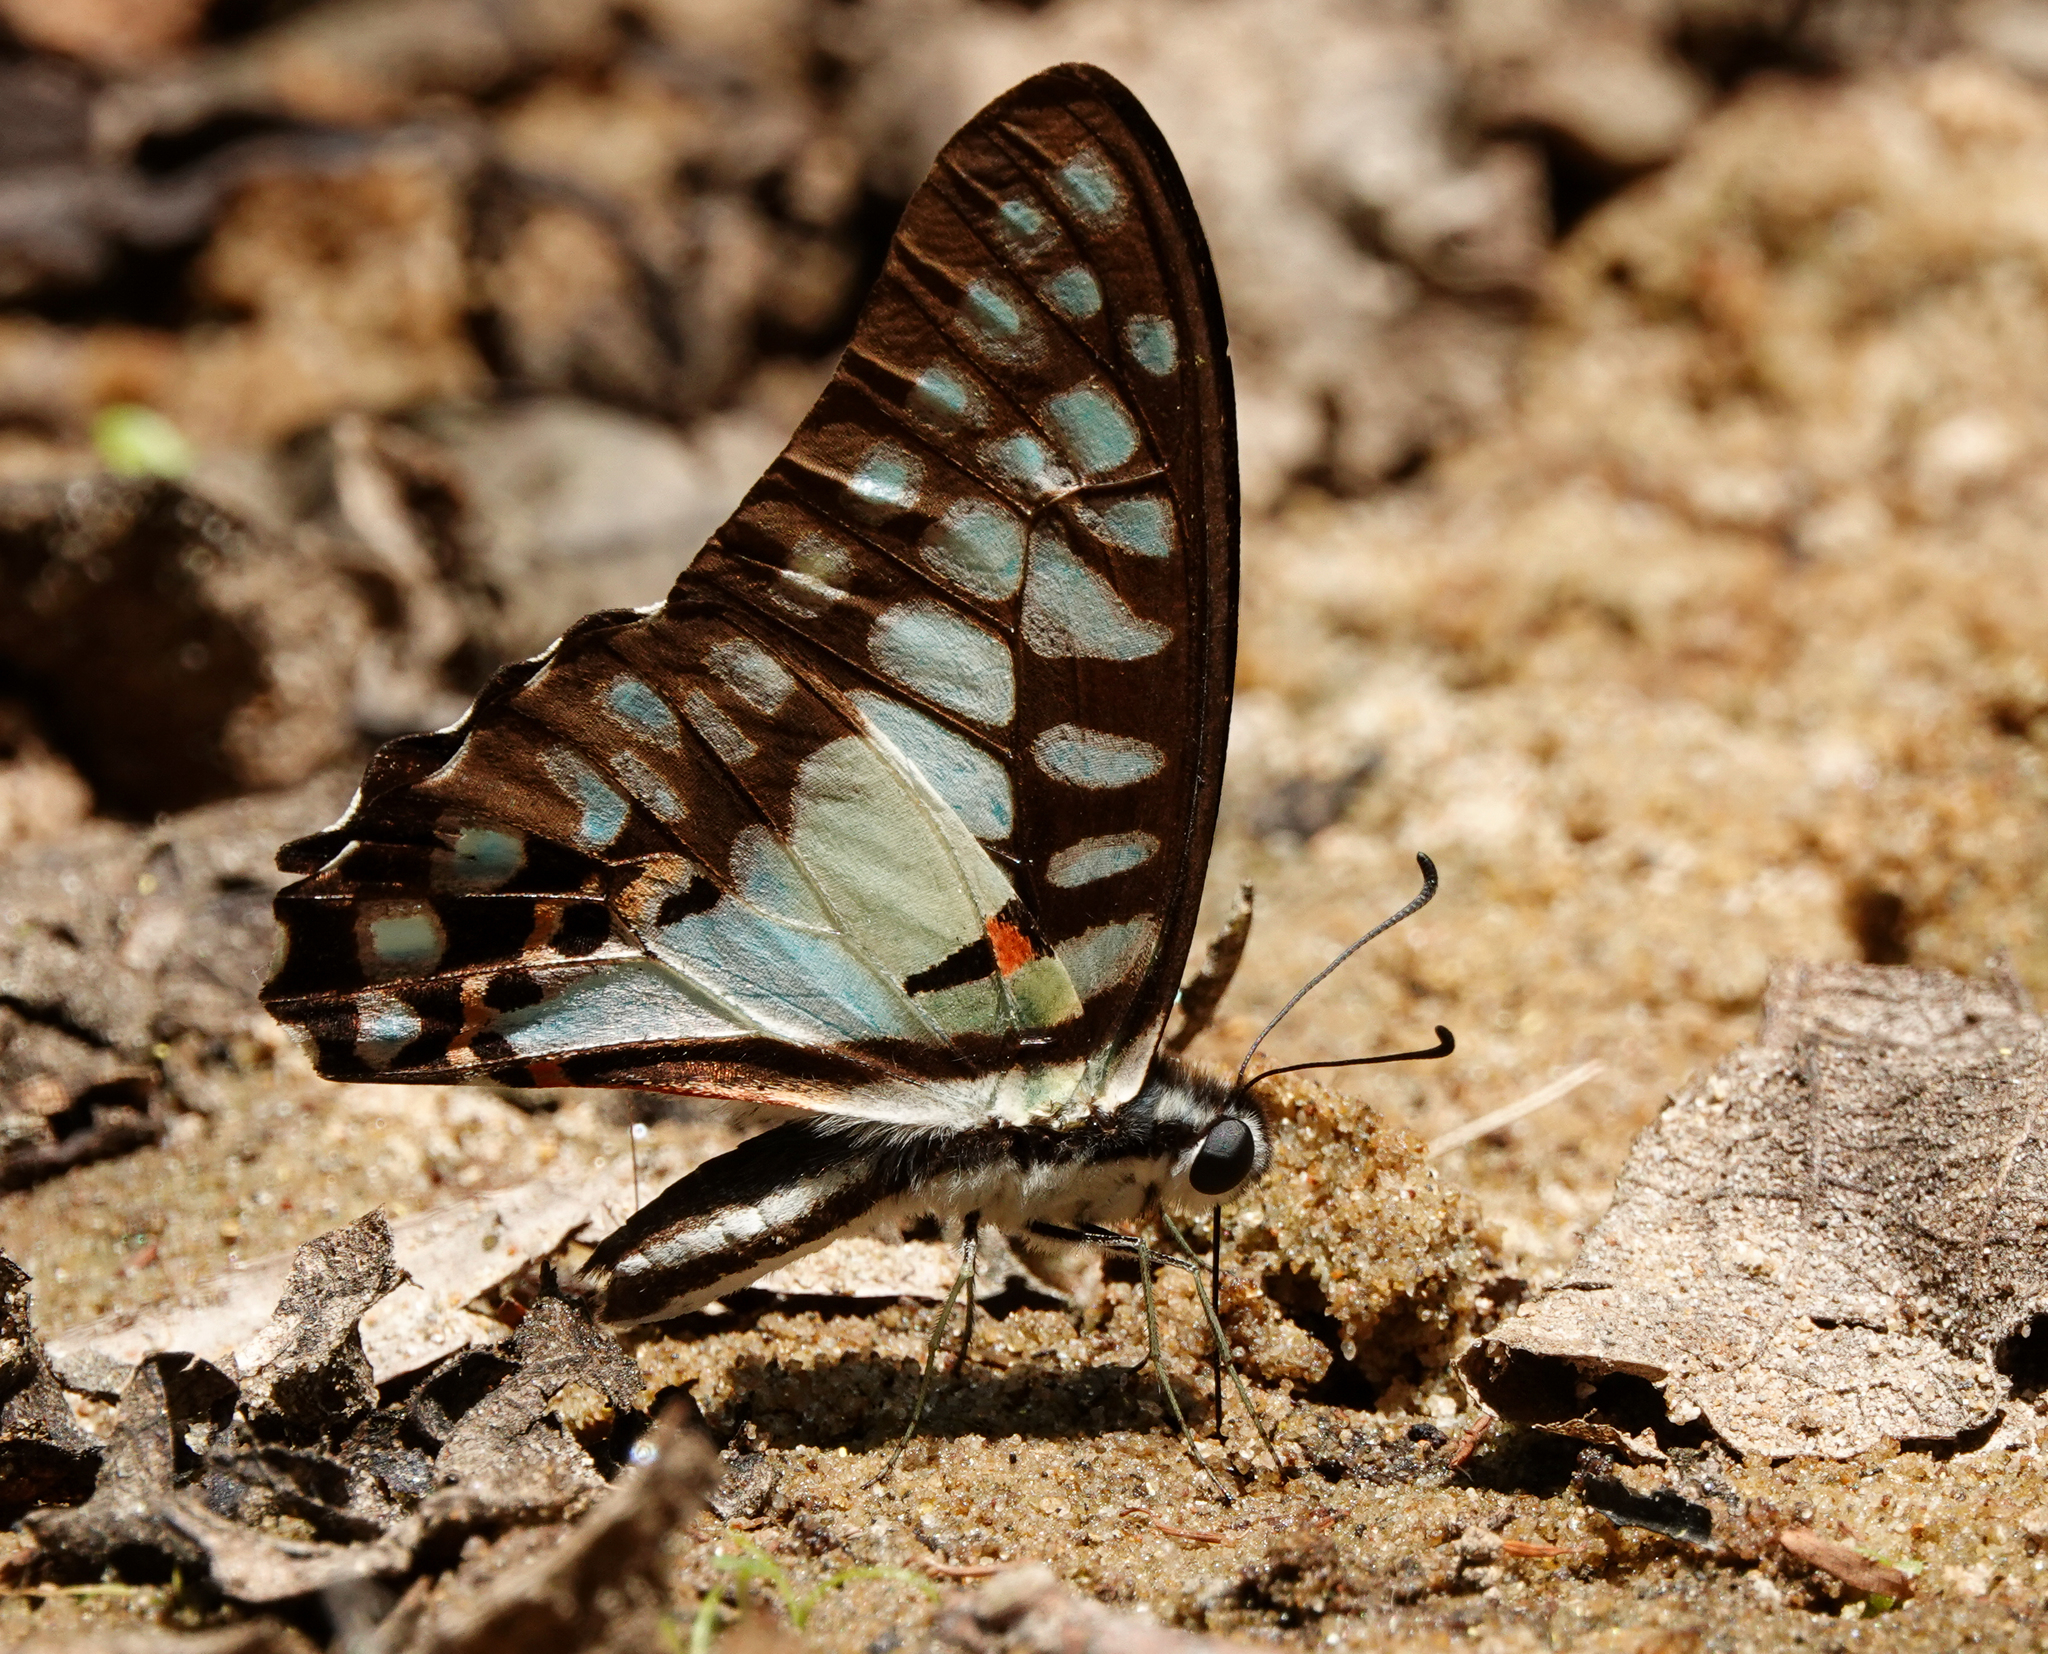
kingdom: Animalia
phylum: Arthropoda
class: Insecta
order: Lepidoptera
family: Papilionidae
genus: Graphium
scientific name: Graphium doson
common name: Common jay
